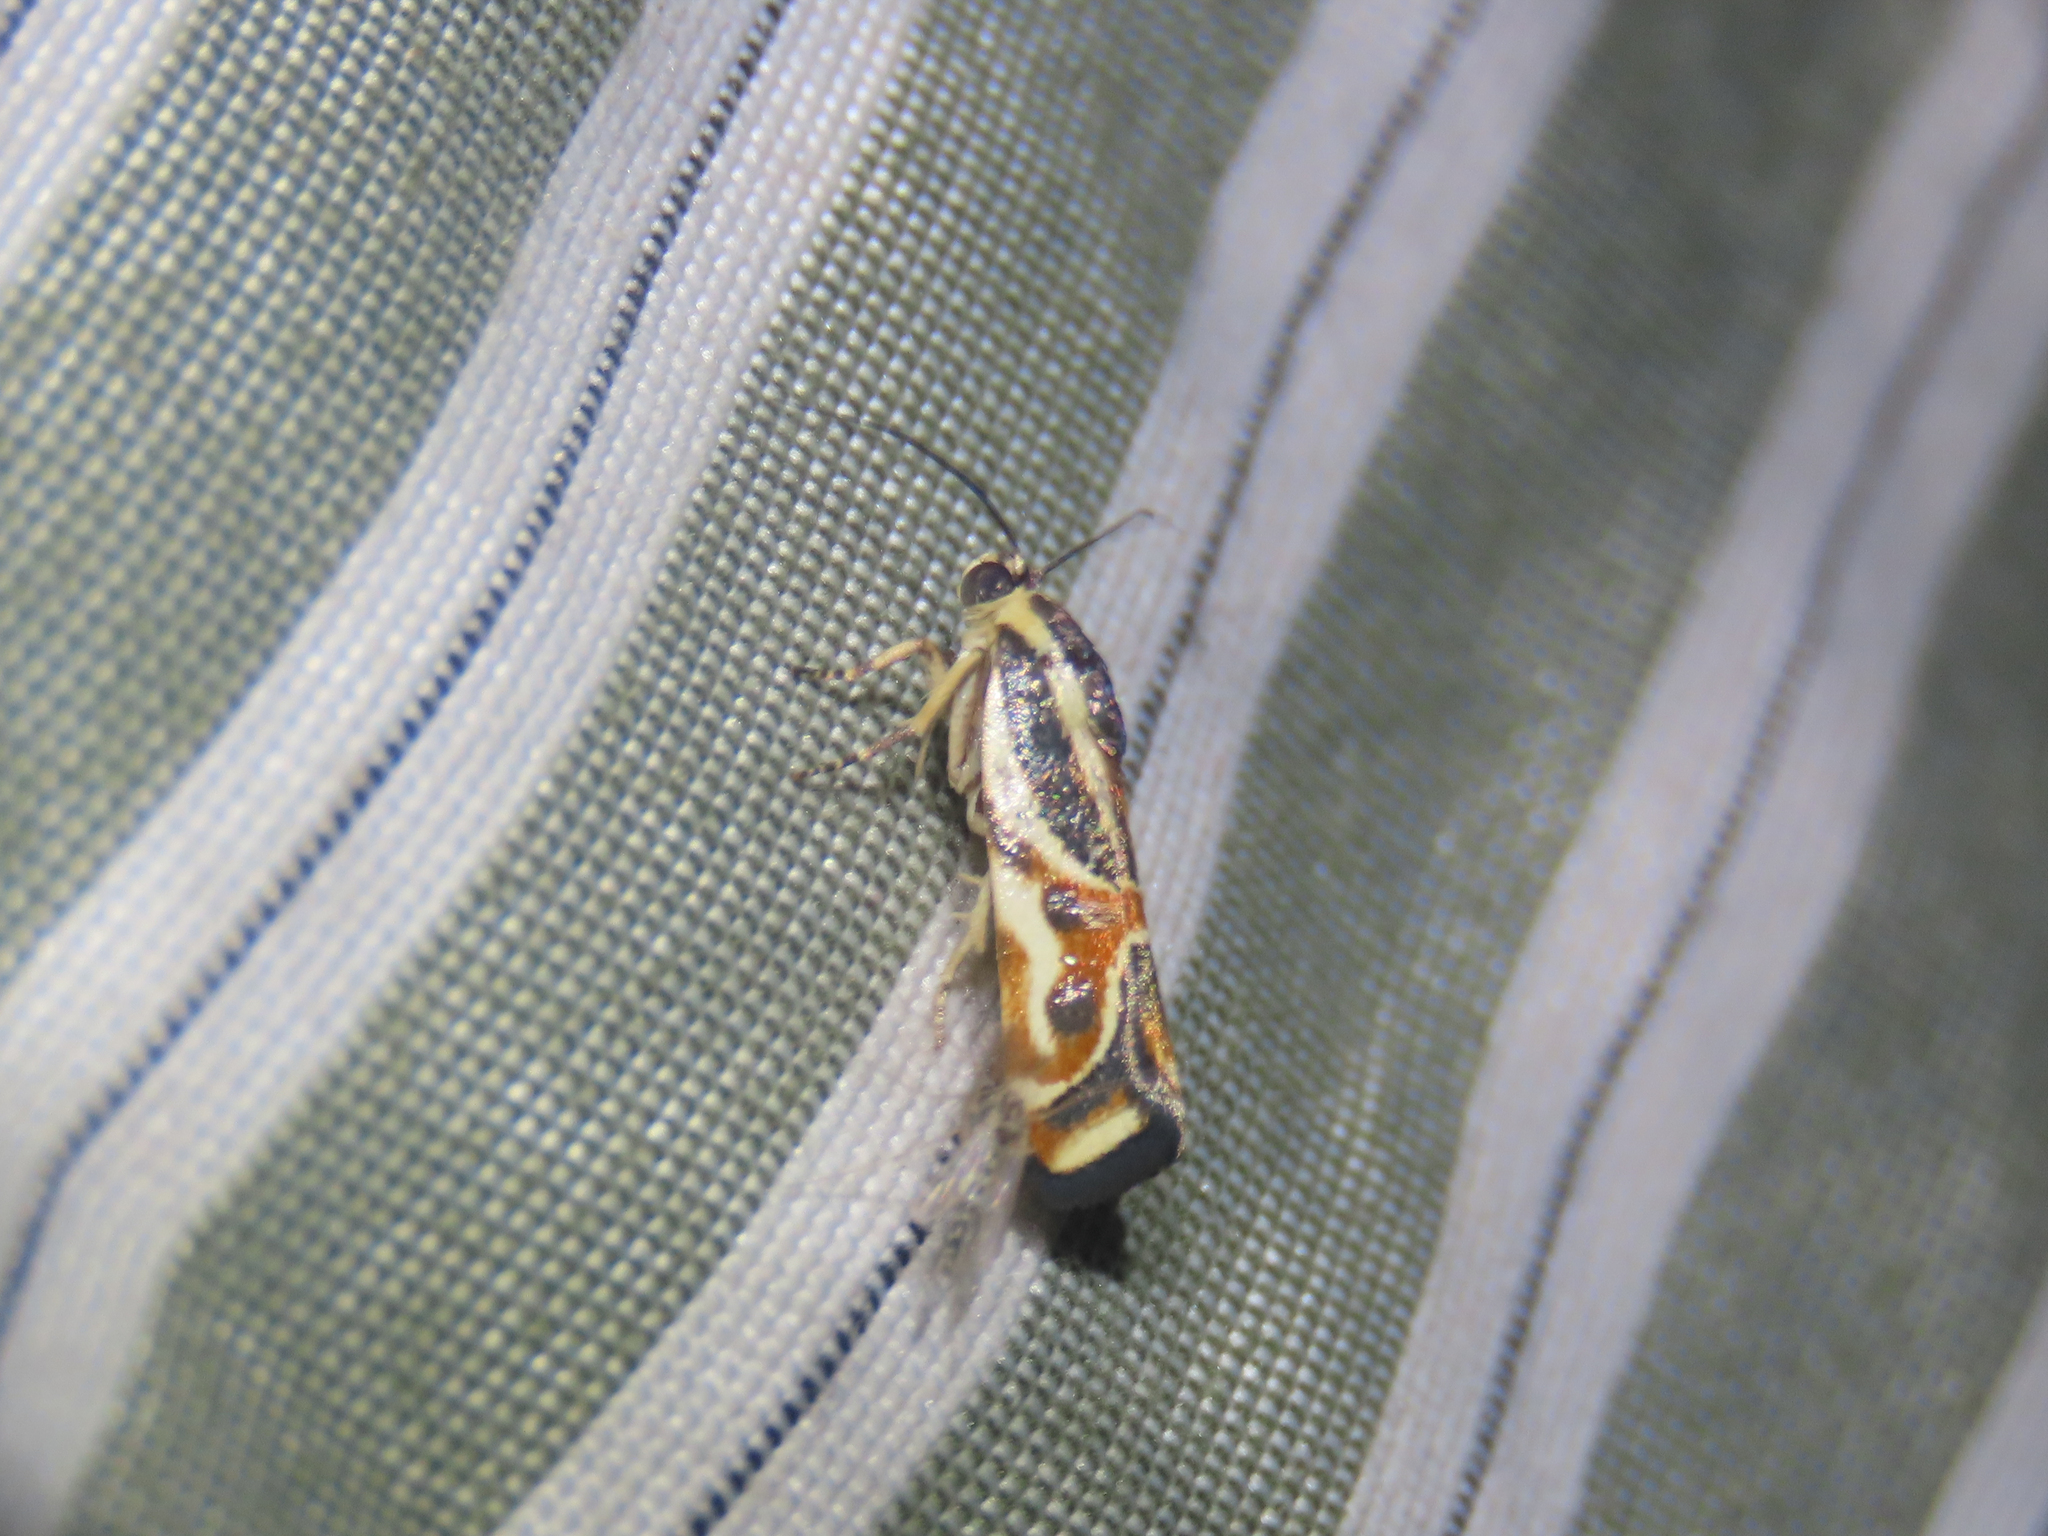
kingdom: Animalia
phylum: Arthropoda
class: Insecta
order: Lepidoptera
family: Noctuidae
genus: Spragueia
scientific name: Spragueia magnifica
